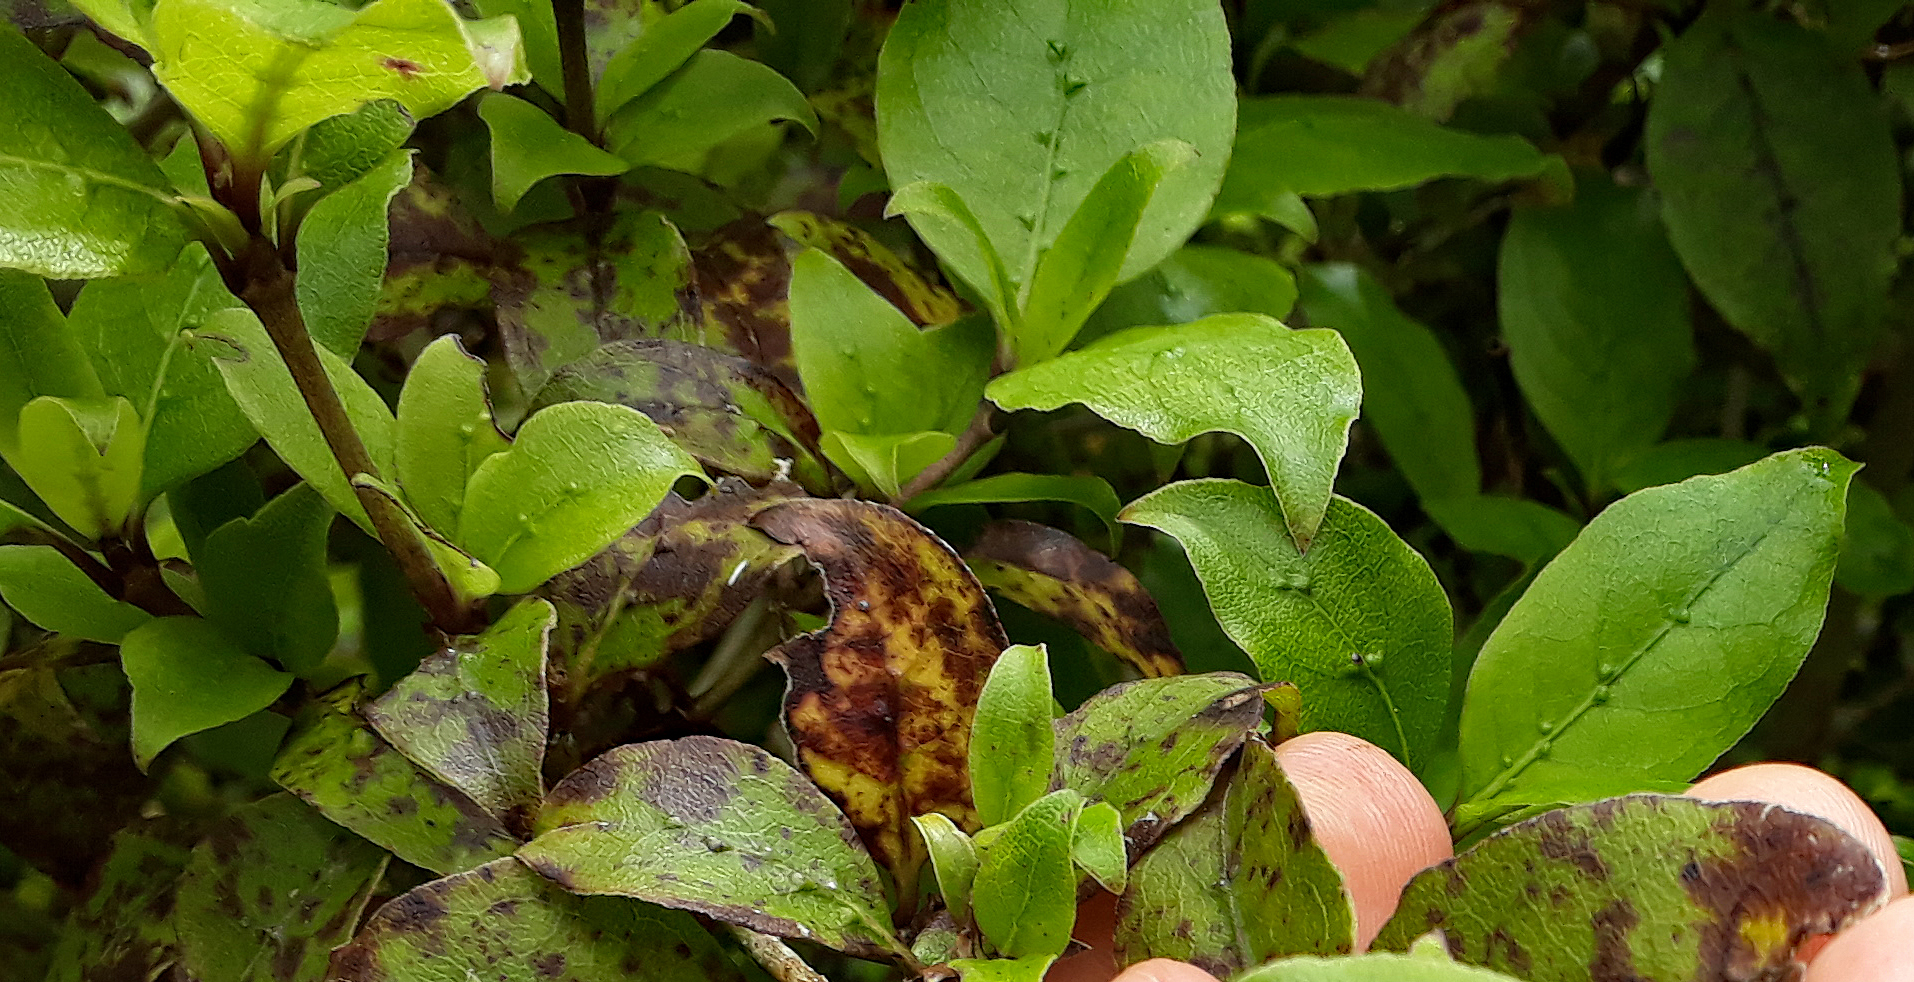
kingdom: Plantae
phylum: Tracheophyta
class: Magnoliopsida
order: Gentianales
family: Rubiaceae
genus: Coprosma
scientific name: Coprosma tenuifolia
